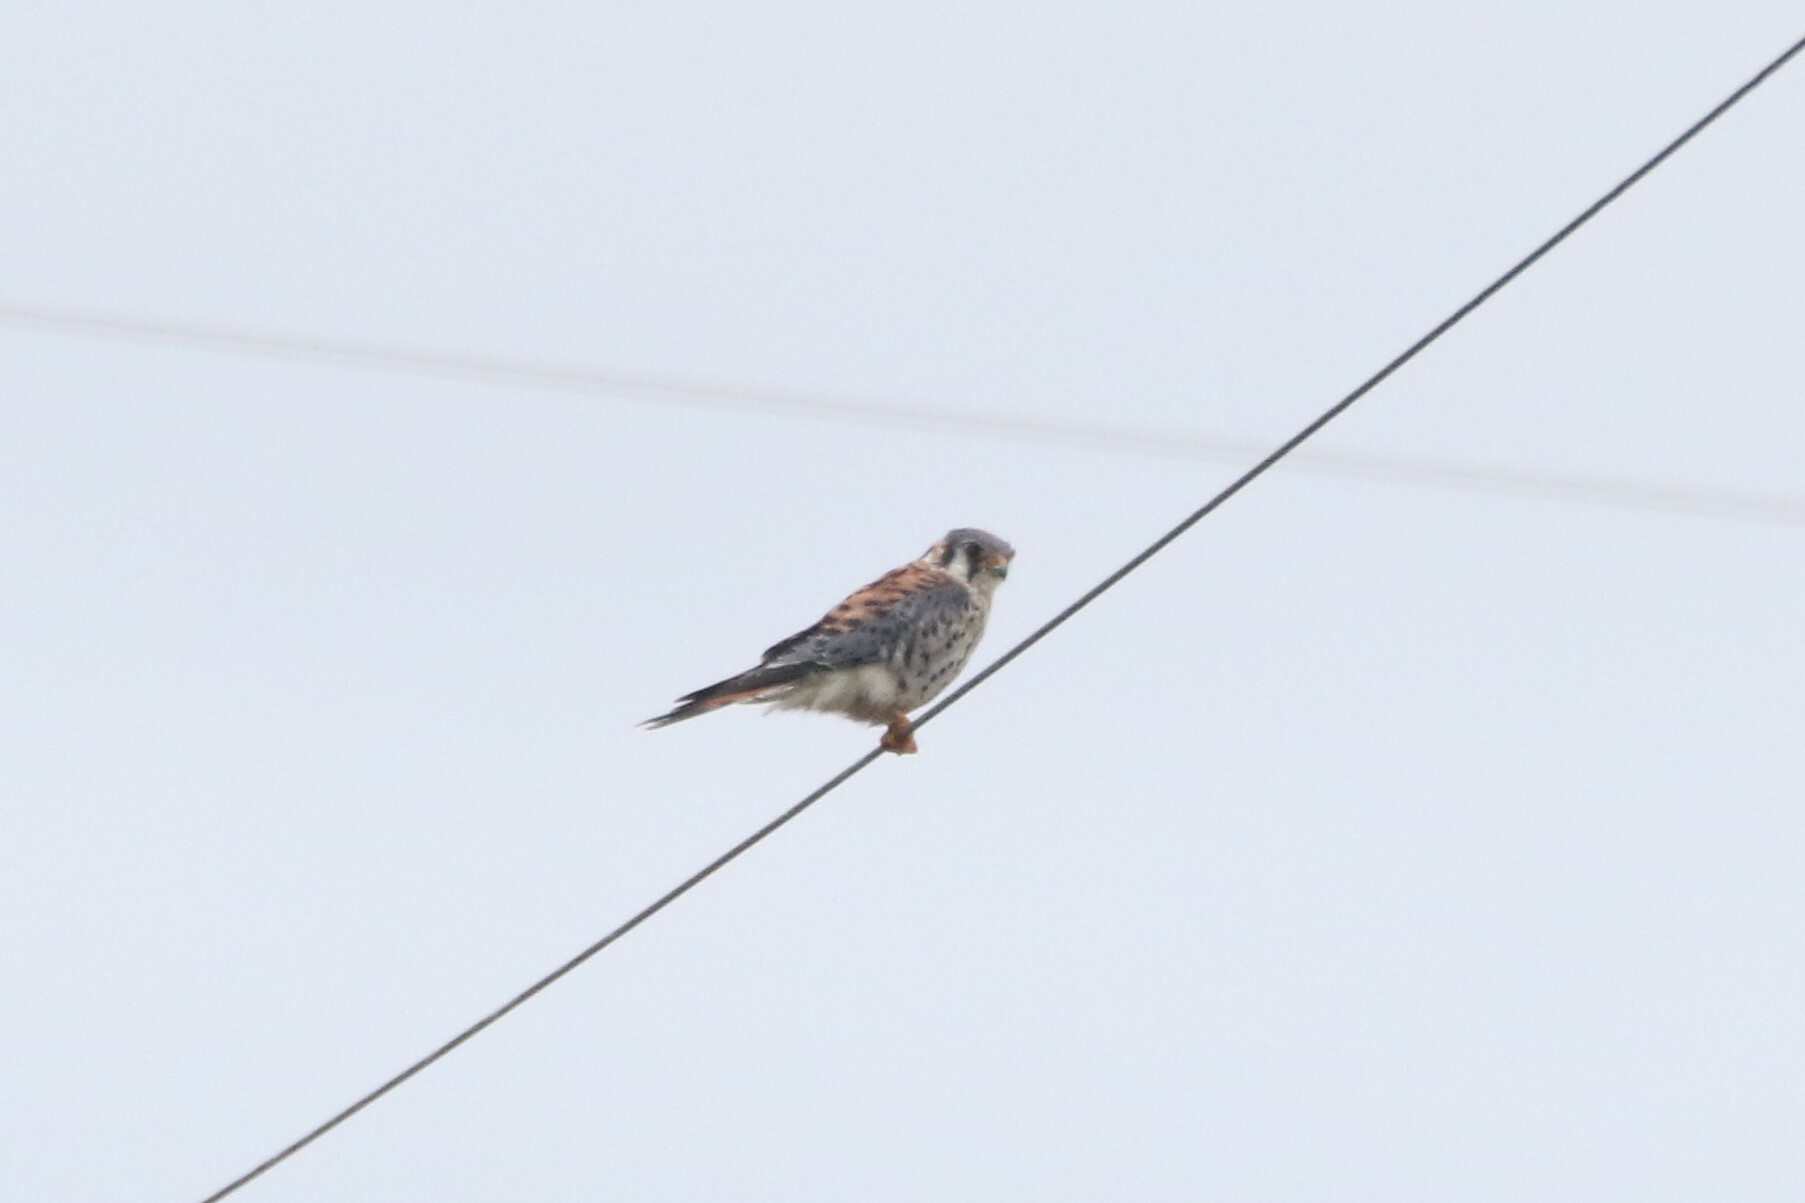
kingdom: Animalia
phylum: Chordata
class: Aves
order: Falconiformes
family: Falconidae
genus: Falco
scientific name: Falco sparverius
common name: American kestrel
